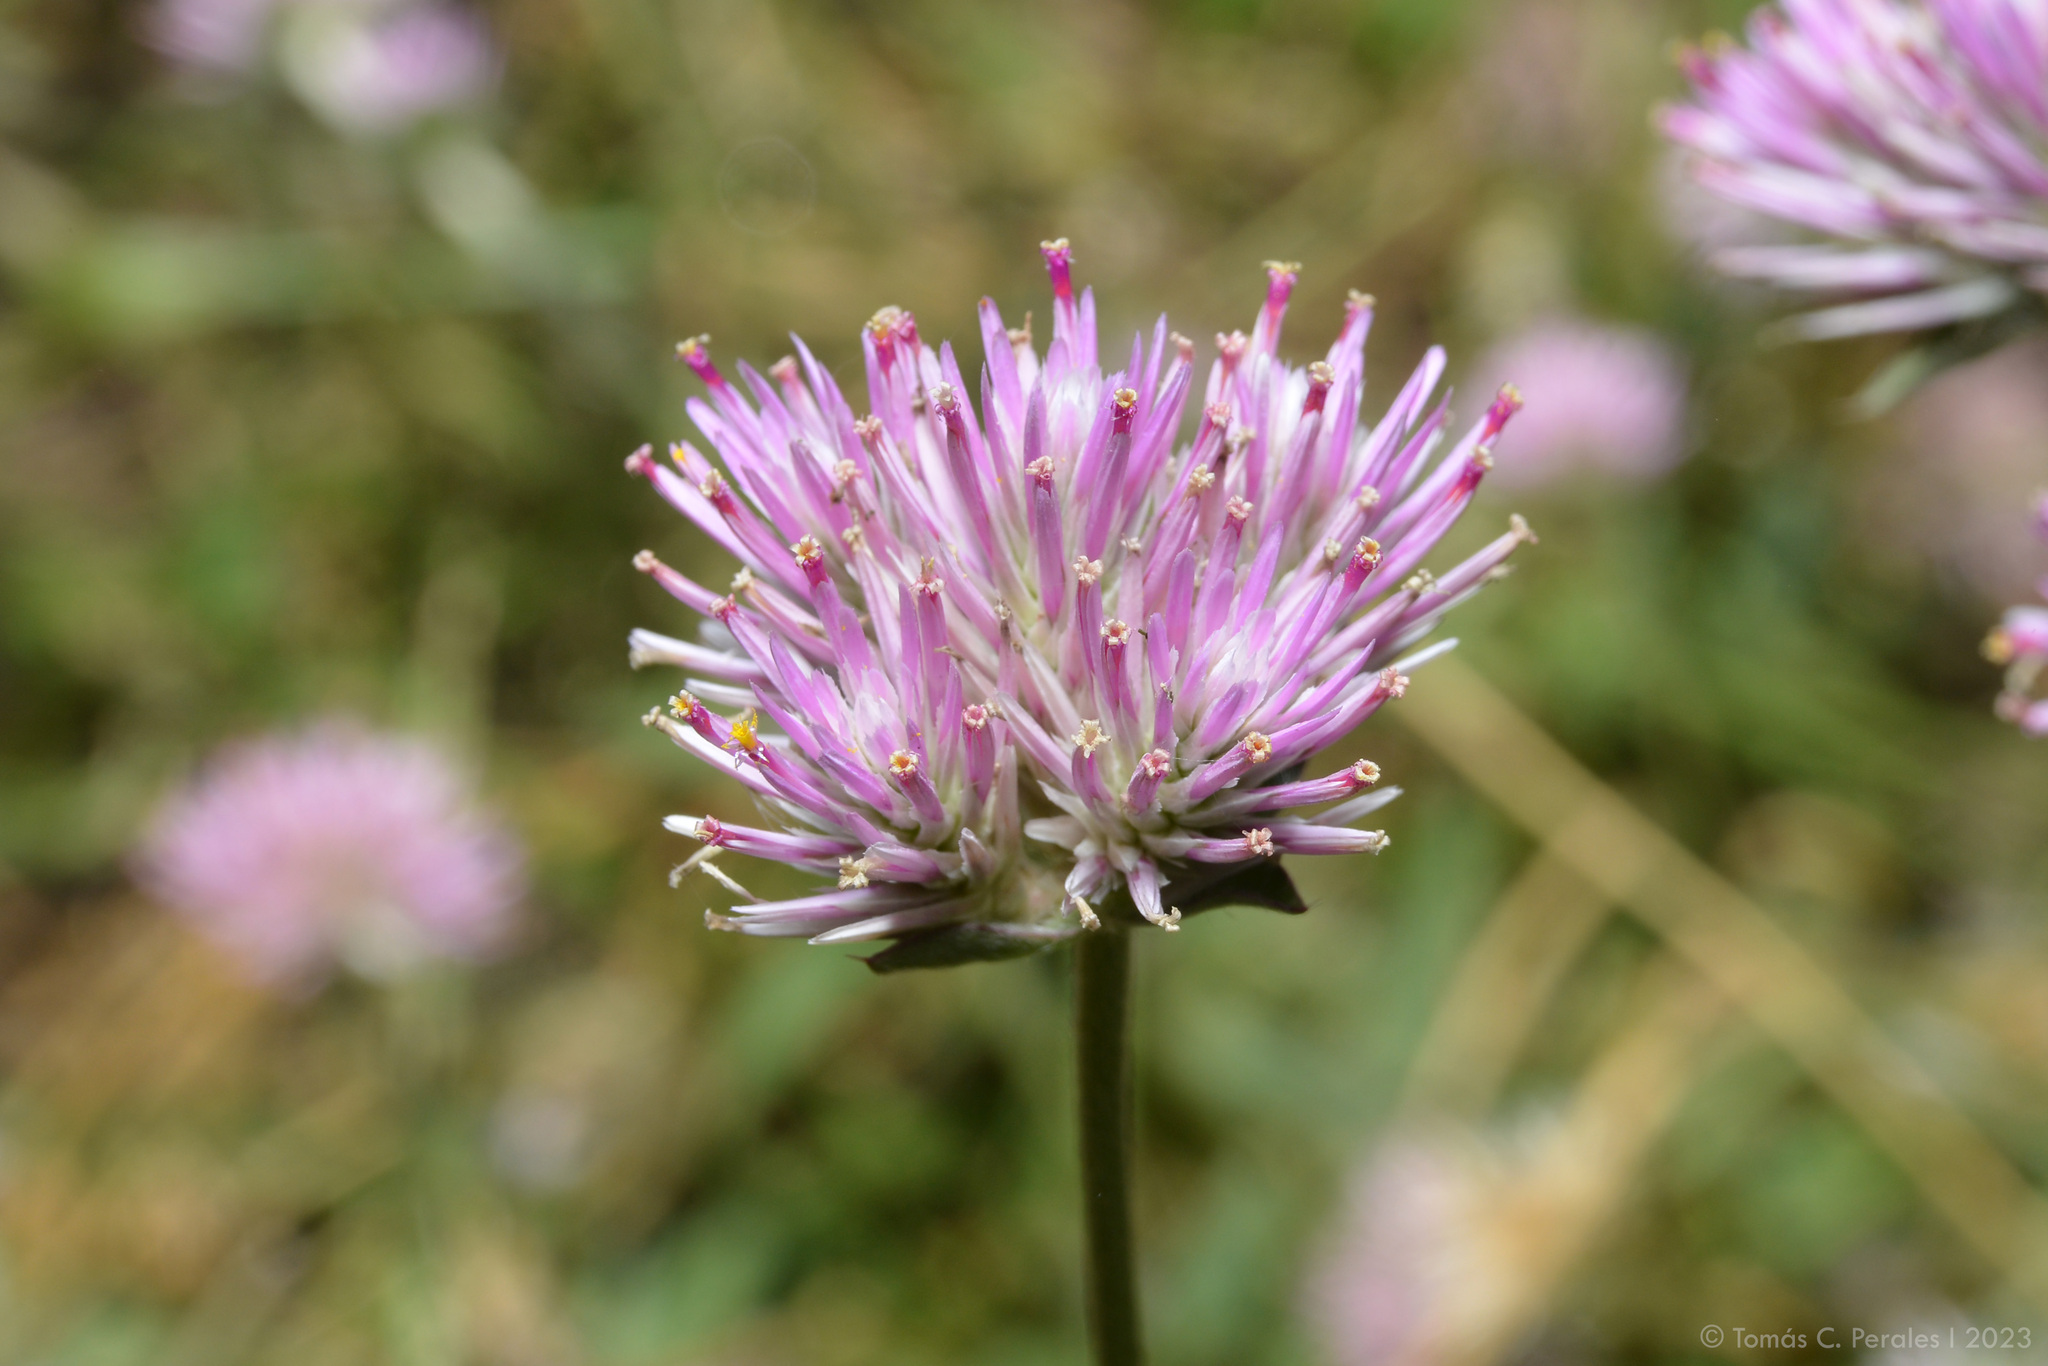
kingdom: Plantae
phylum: Tracheophyta
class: Magnoliopsida
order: Caryophyllales
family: Amaranthaceae
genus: Gomphrena
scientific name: Gomphrena pulchella
